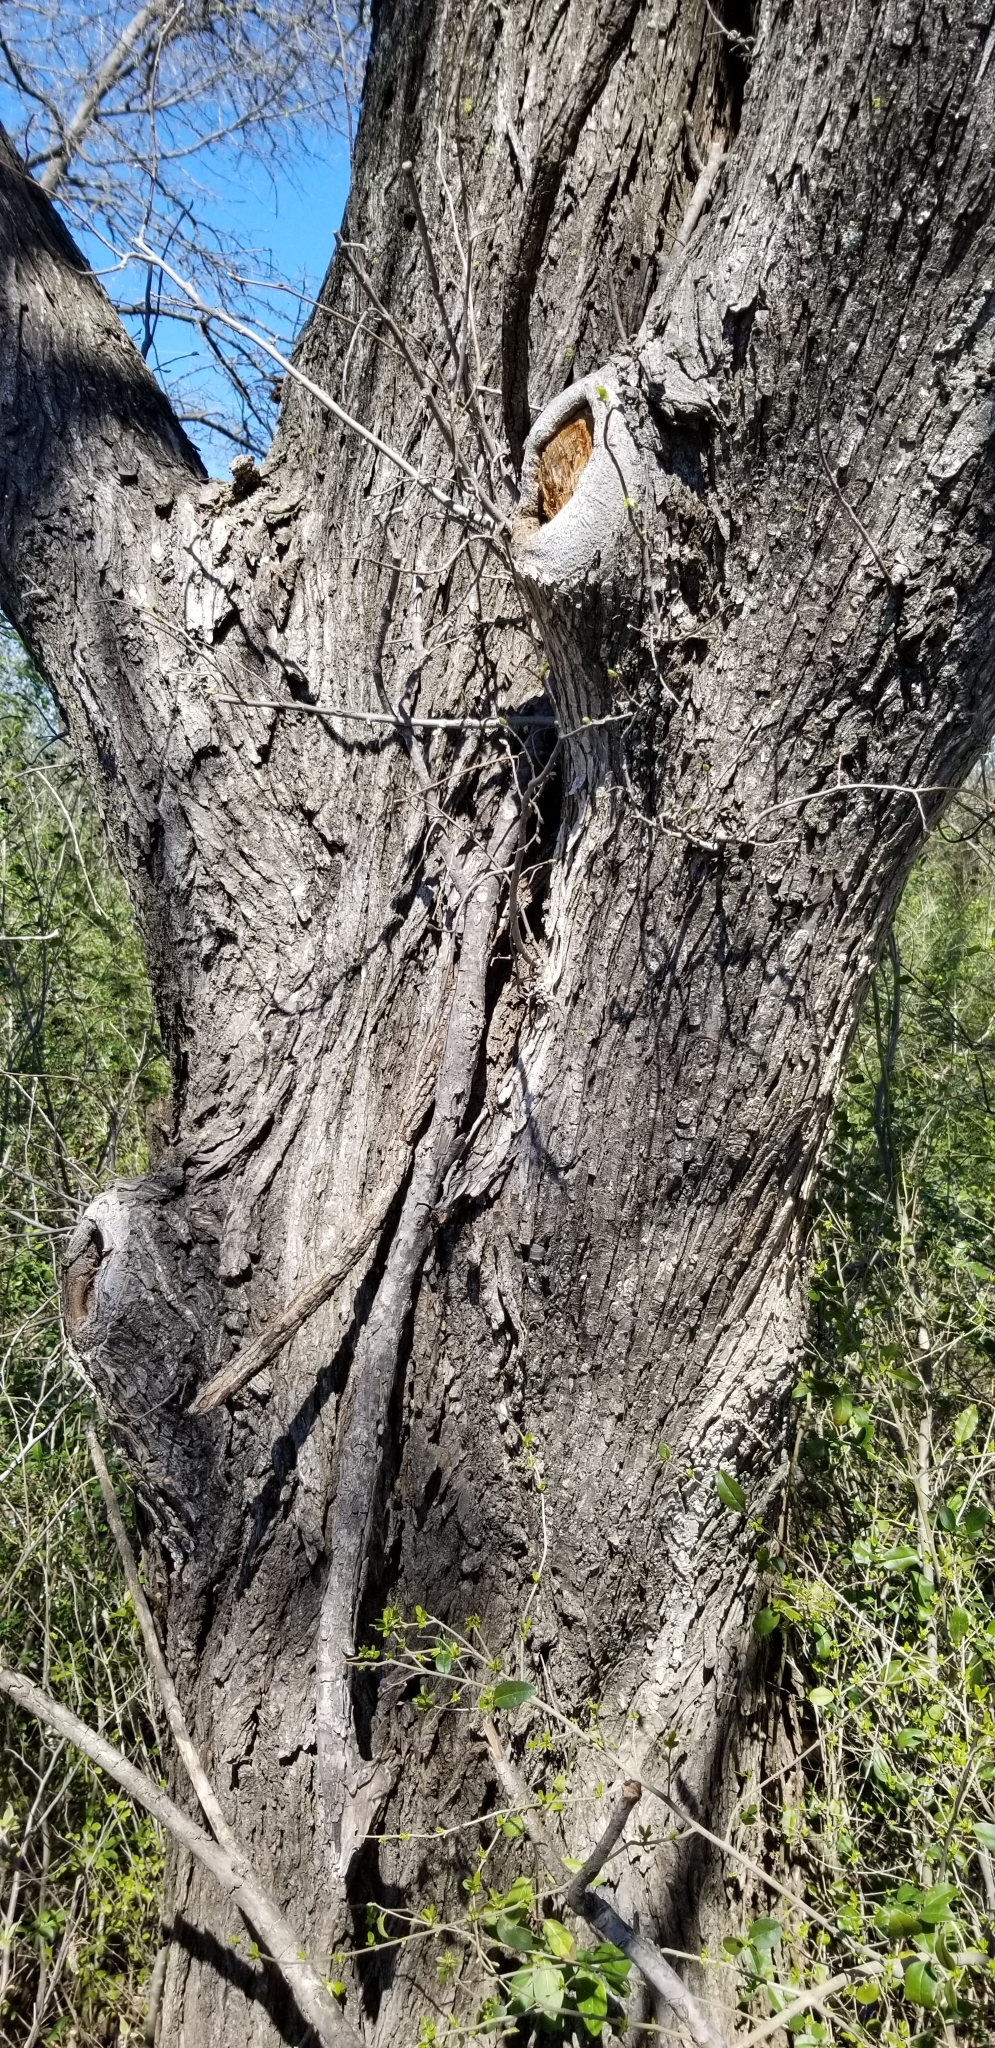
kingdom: Plantae
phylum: Tracheophyta
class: Magnoliopsida
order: Rosales
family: Ulmaceae
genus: Ulmus
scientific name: Ulmus americana
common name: American elm
